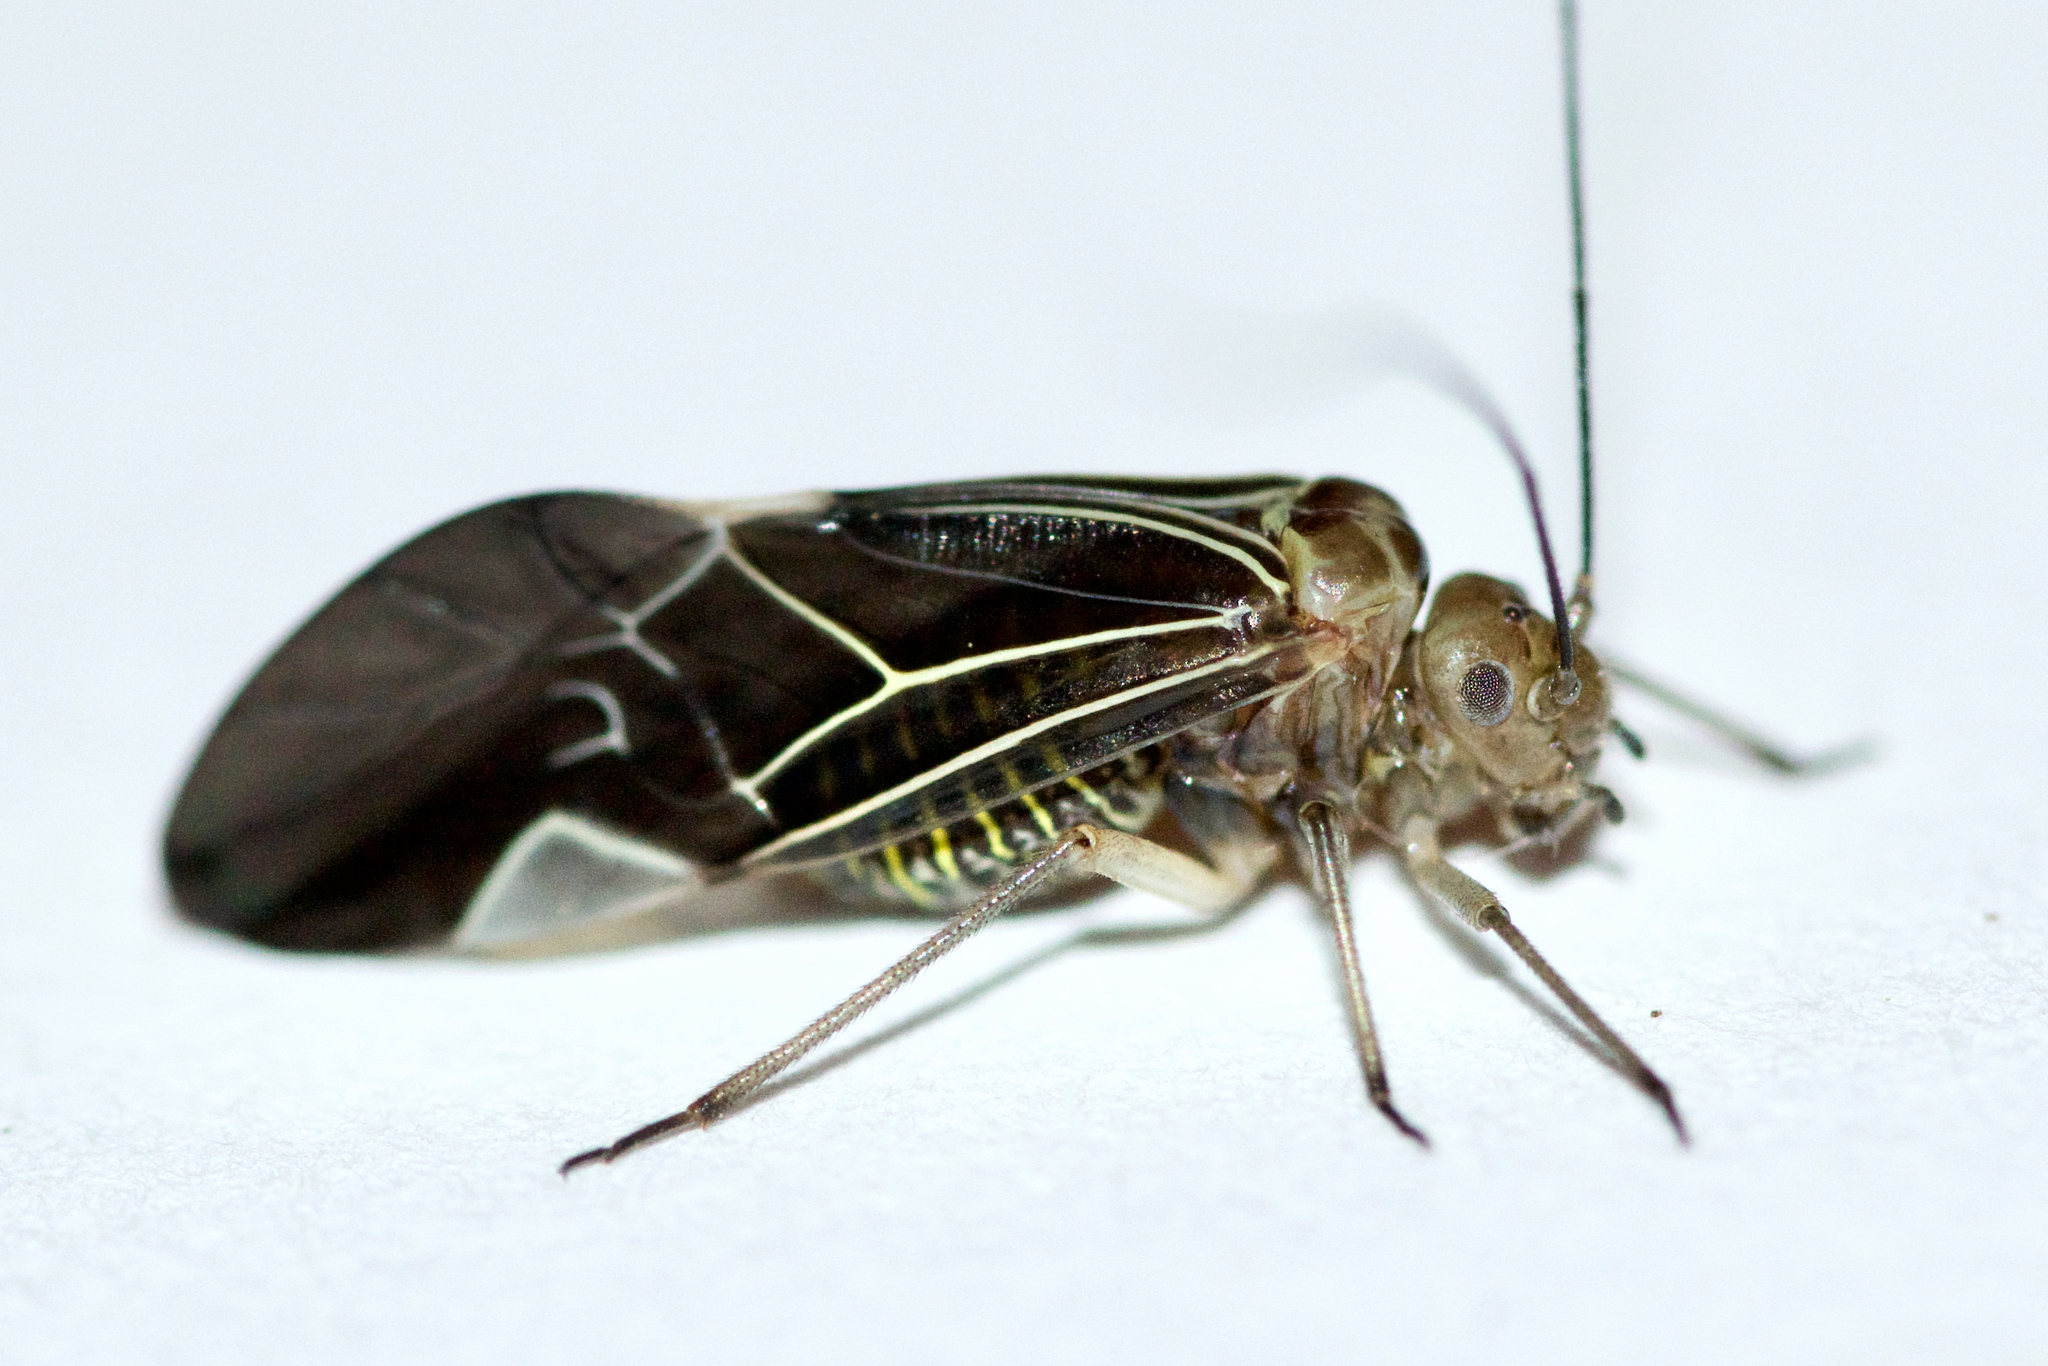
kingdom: Animalia
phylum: Arthropoda
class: Insecta
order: Psocodea
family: Psocidae
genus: Cerastipsocus
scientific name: Cerastipsocus venosus
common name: Tree cattle
